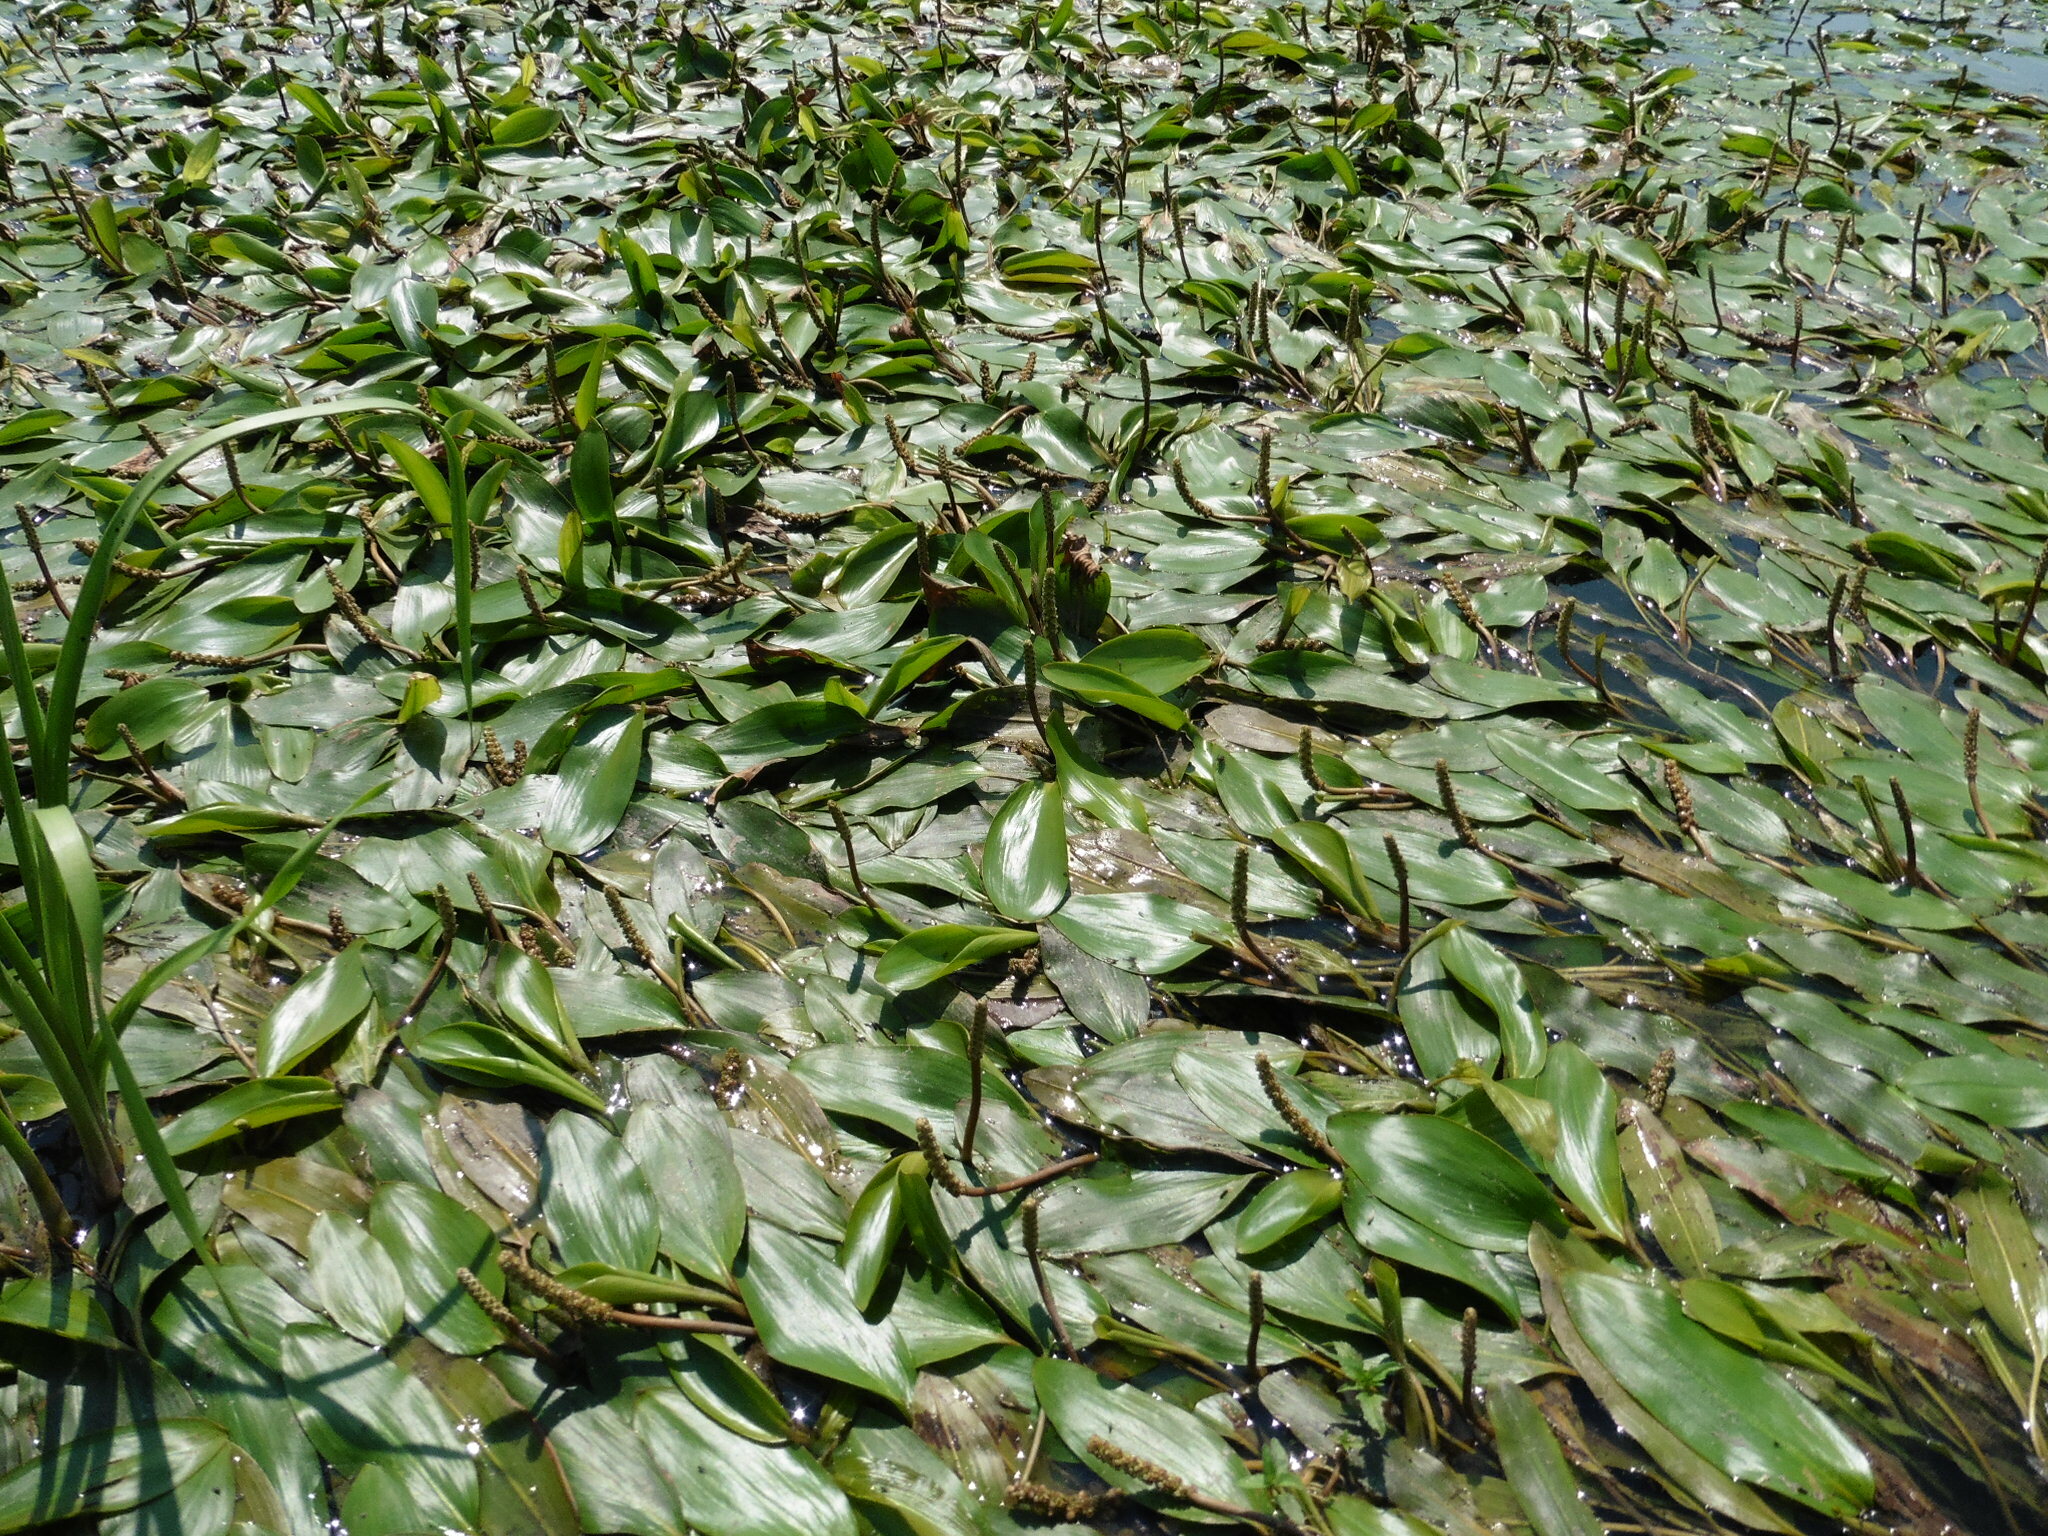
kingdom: Plantae
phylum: Tracheophyta
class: Liliopsida
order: Alismatales
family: Potamogetonaceae
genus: Potamogeton
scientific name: Potamogeton nodosus
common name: Loddon pondweed
